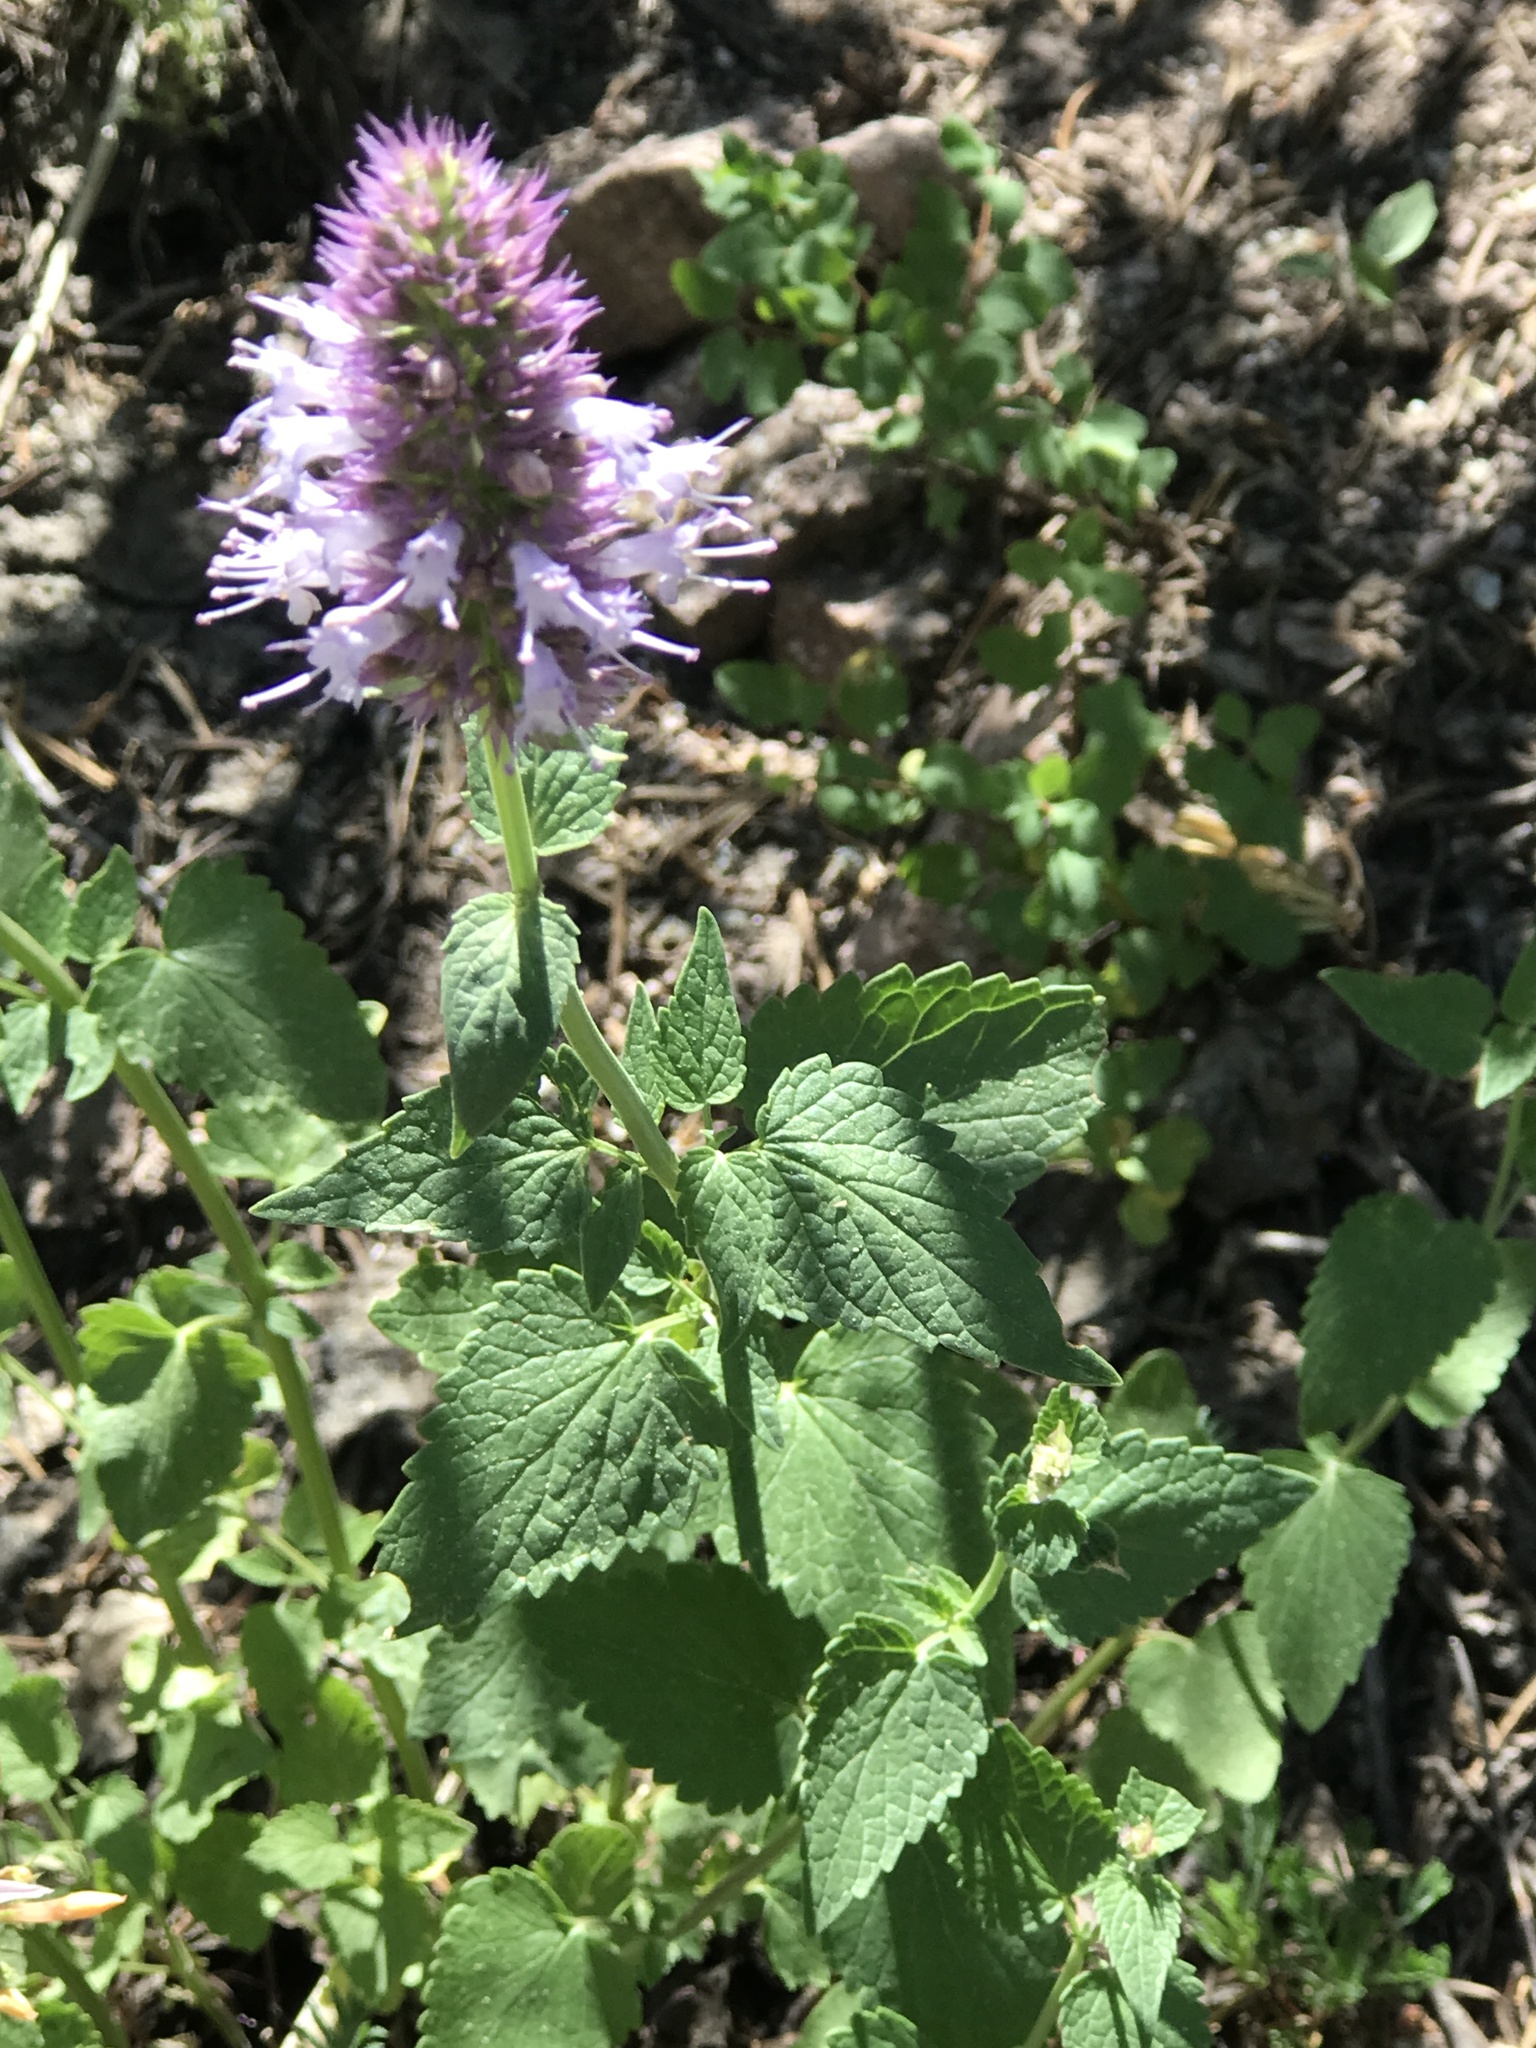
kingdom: Plantae
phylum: Tracheophyta
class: Magnoliopsida
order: Lamiales
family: Lamiaceae
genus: Agastache
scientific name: Agastache urticifolia
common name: Horsemint giant hyssop
